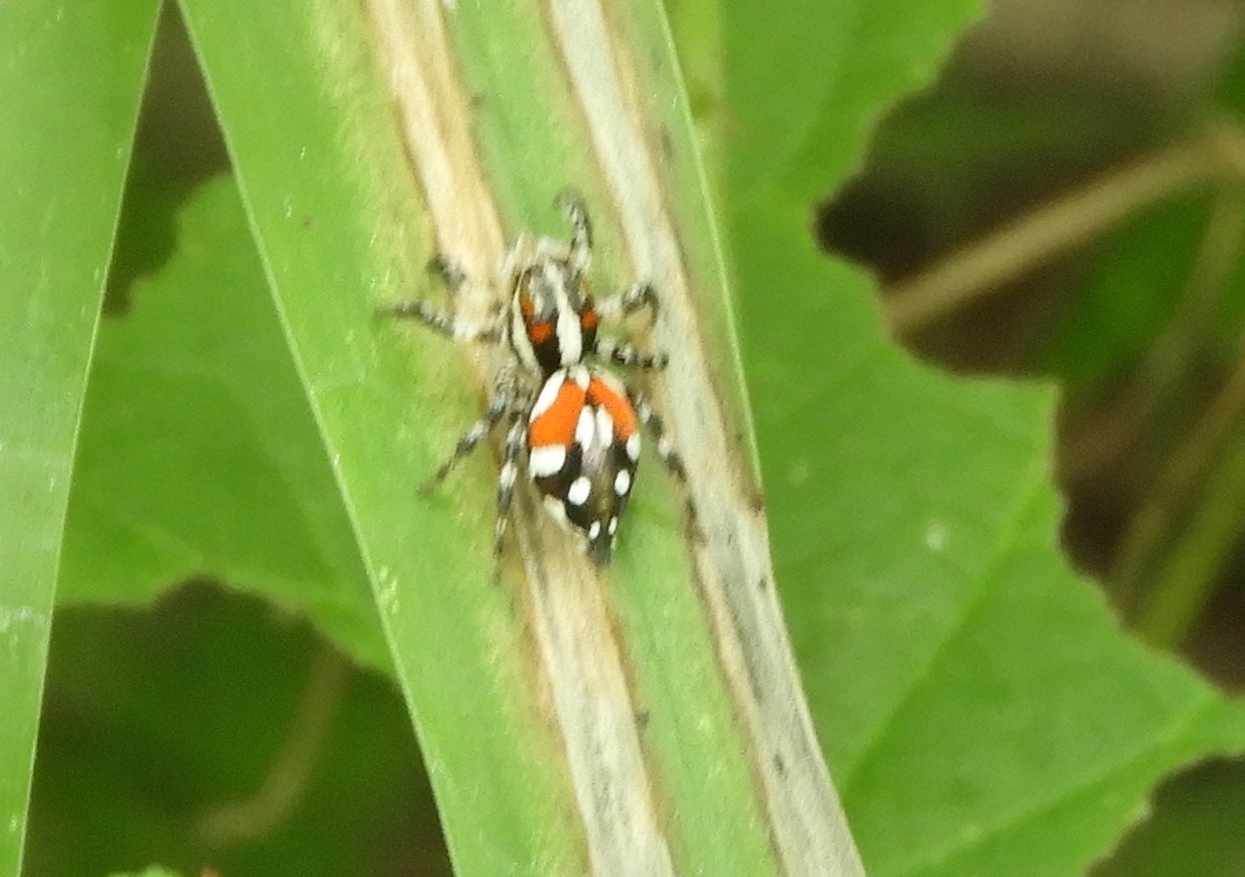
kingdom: Animalia
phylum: Arthropoda
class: Arachnida
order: Araneae
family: Salticidae
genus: Nycerella
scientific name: Nycerella delecta
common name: Jumping spiders
